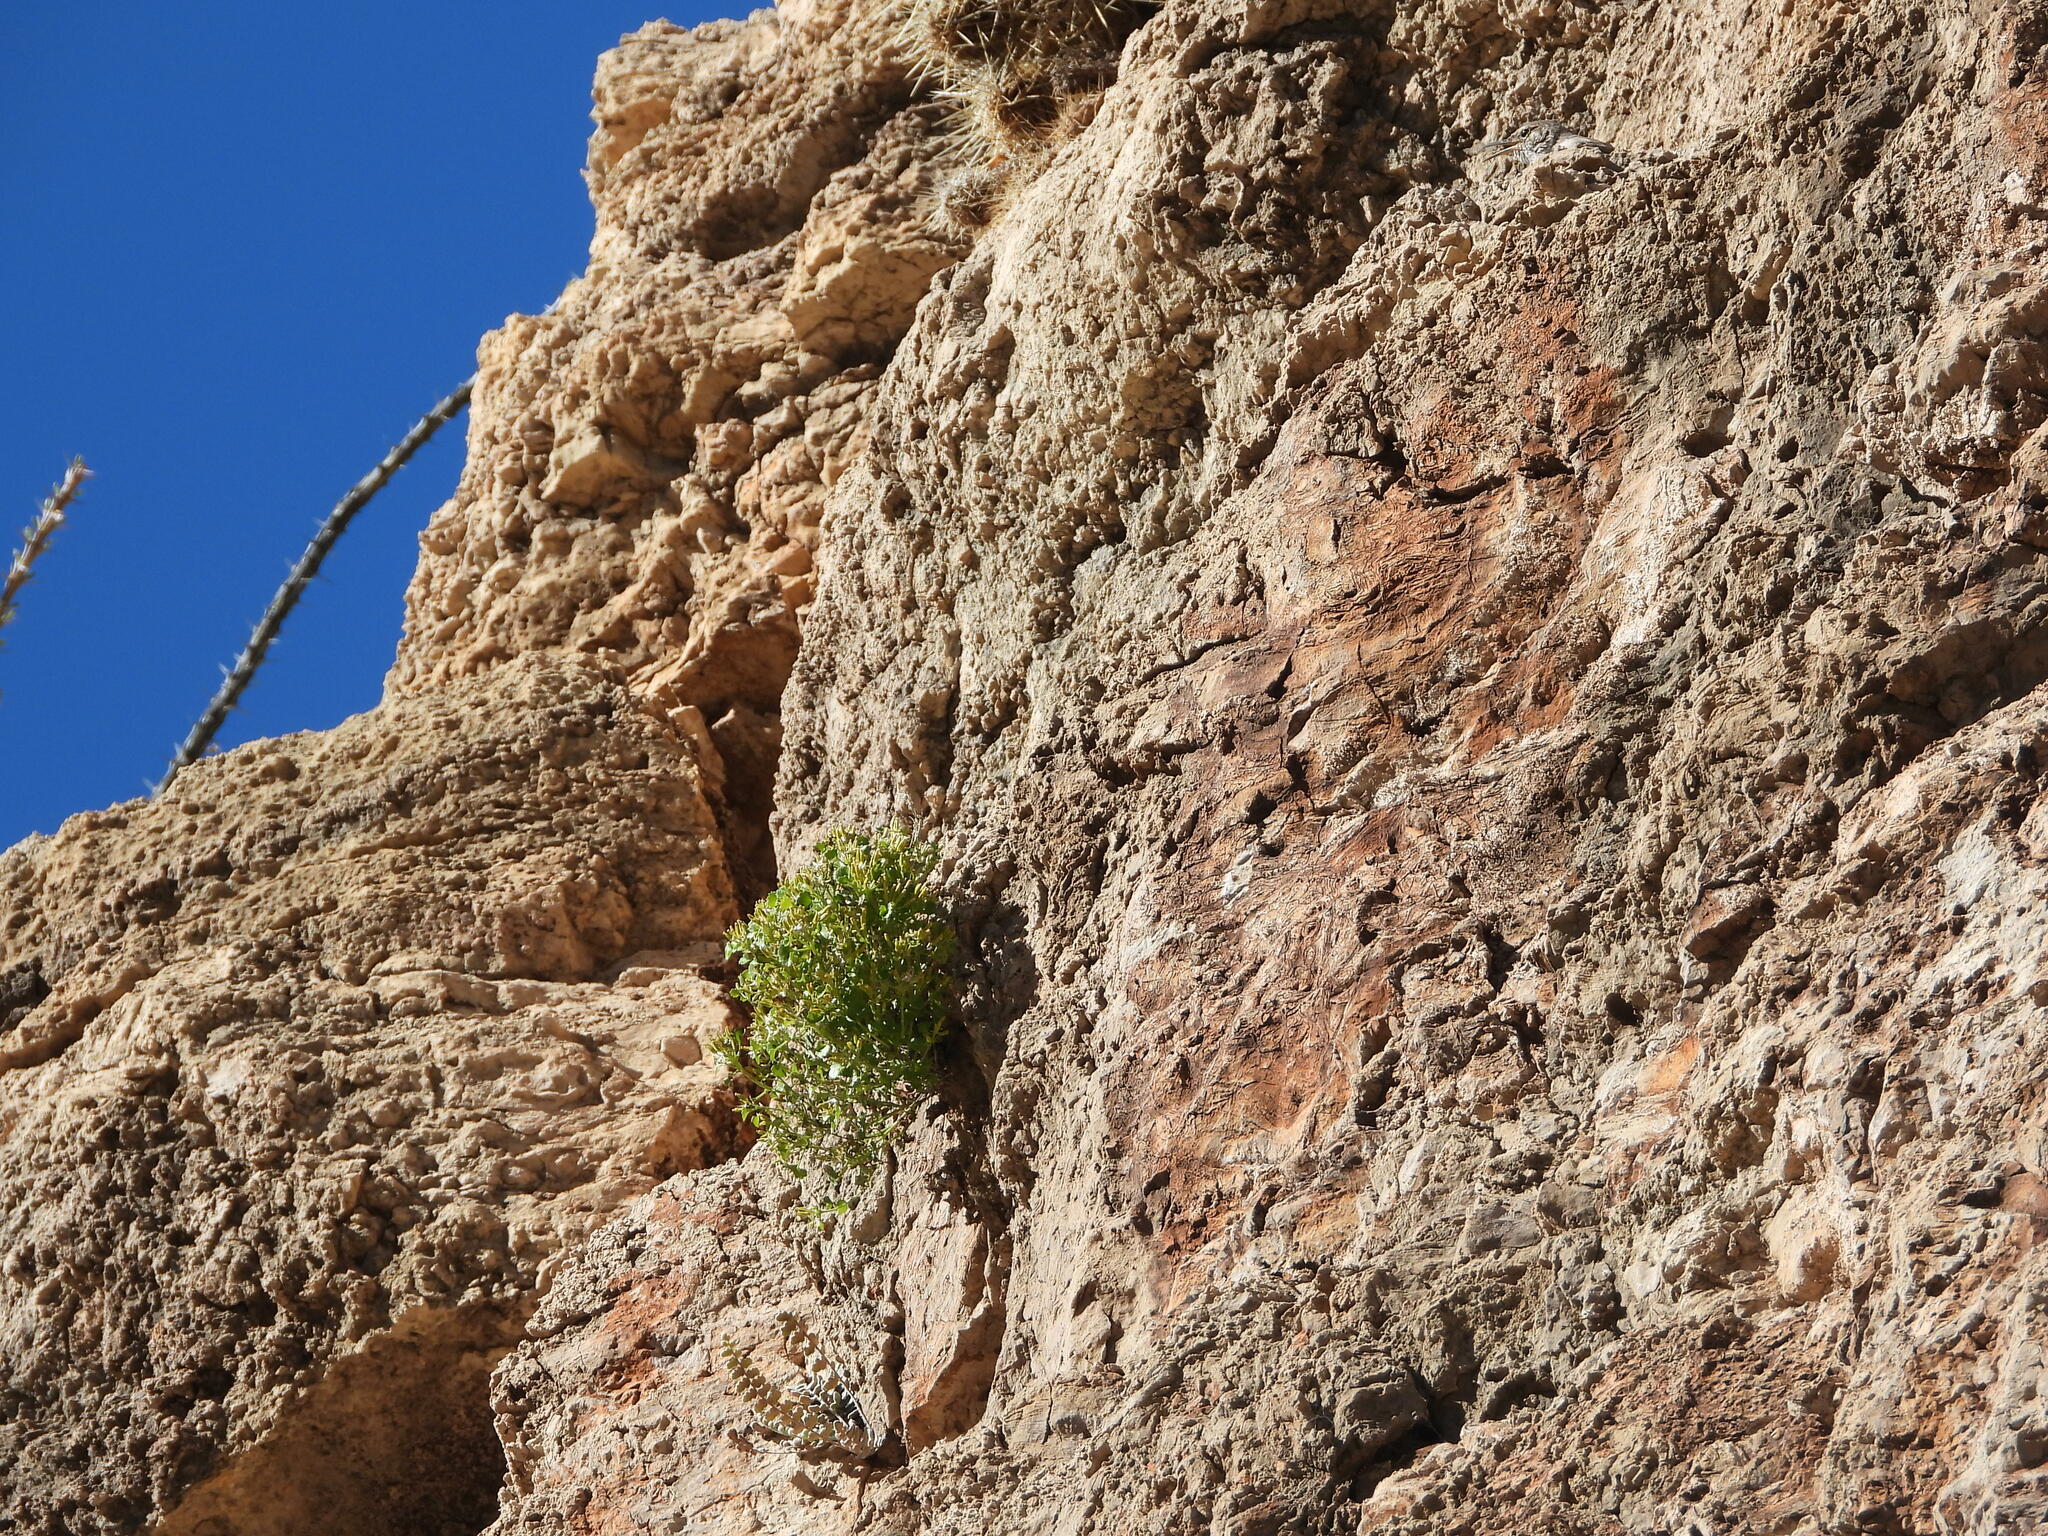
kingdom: Plantae
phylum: Tracheophyta
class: Magnoliopsida
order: Asterales
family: Asteraceae
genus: Laphamia
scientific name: Laphamia quinqueflora
